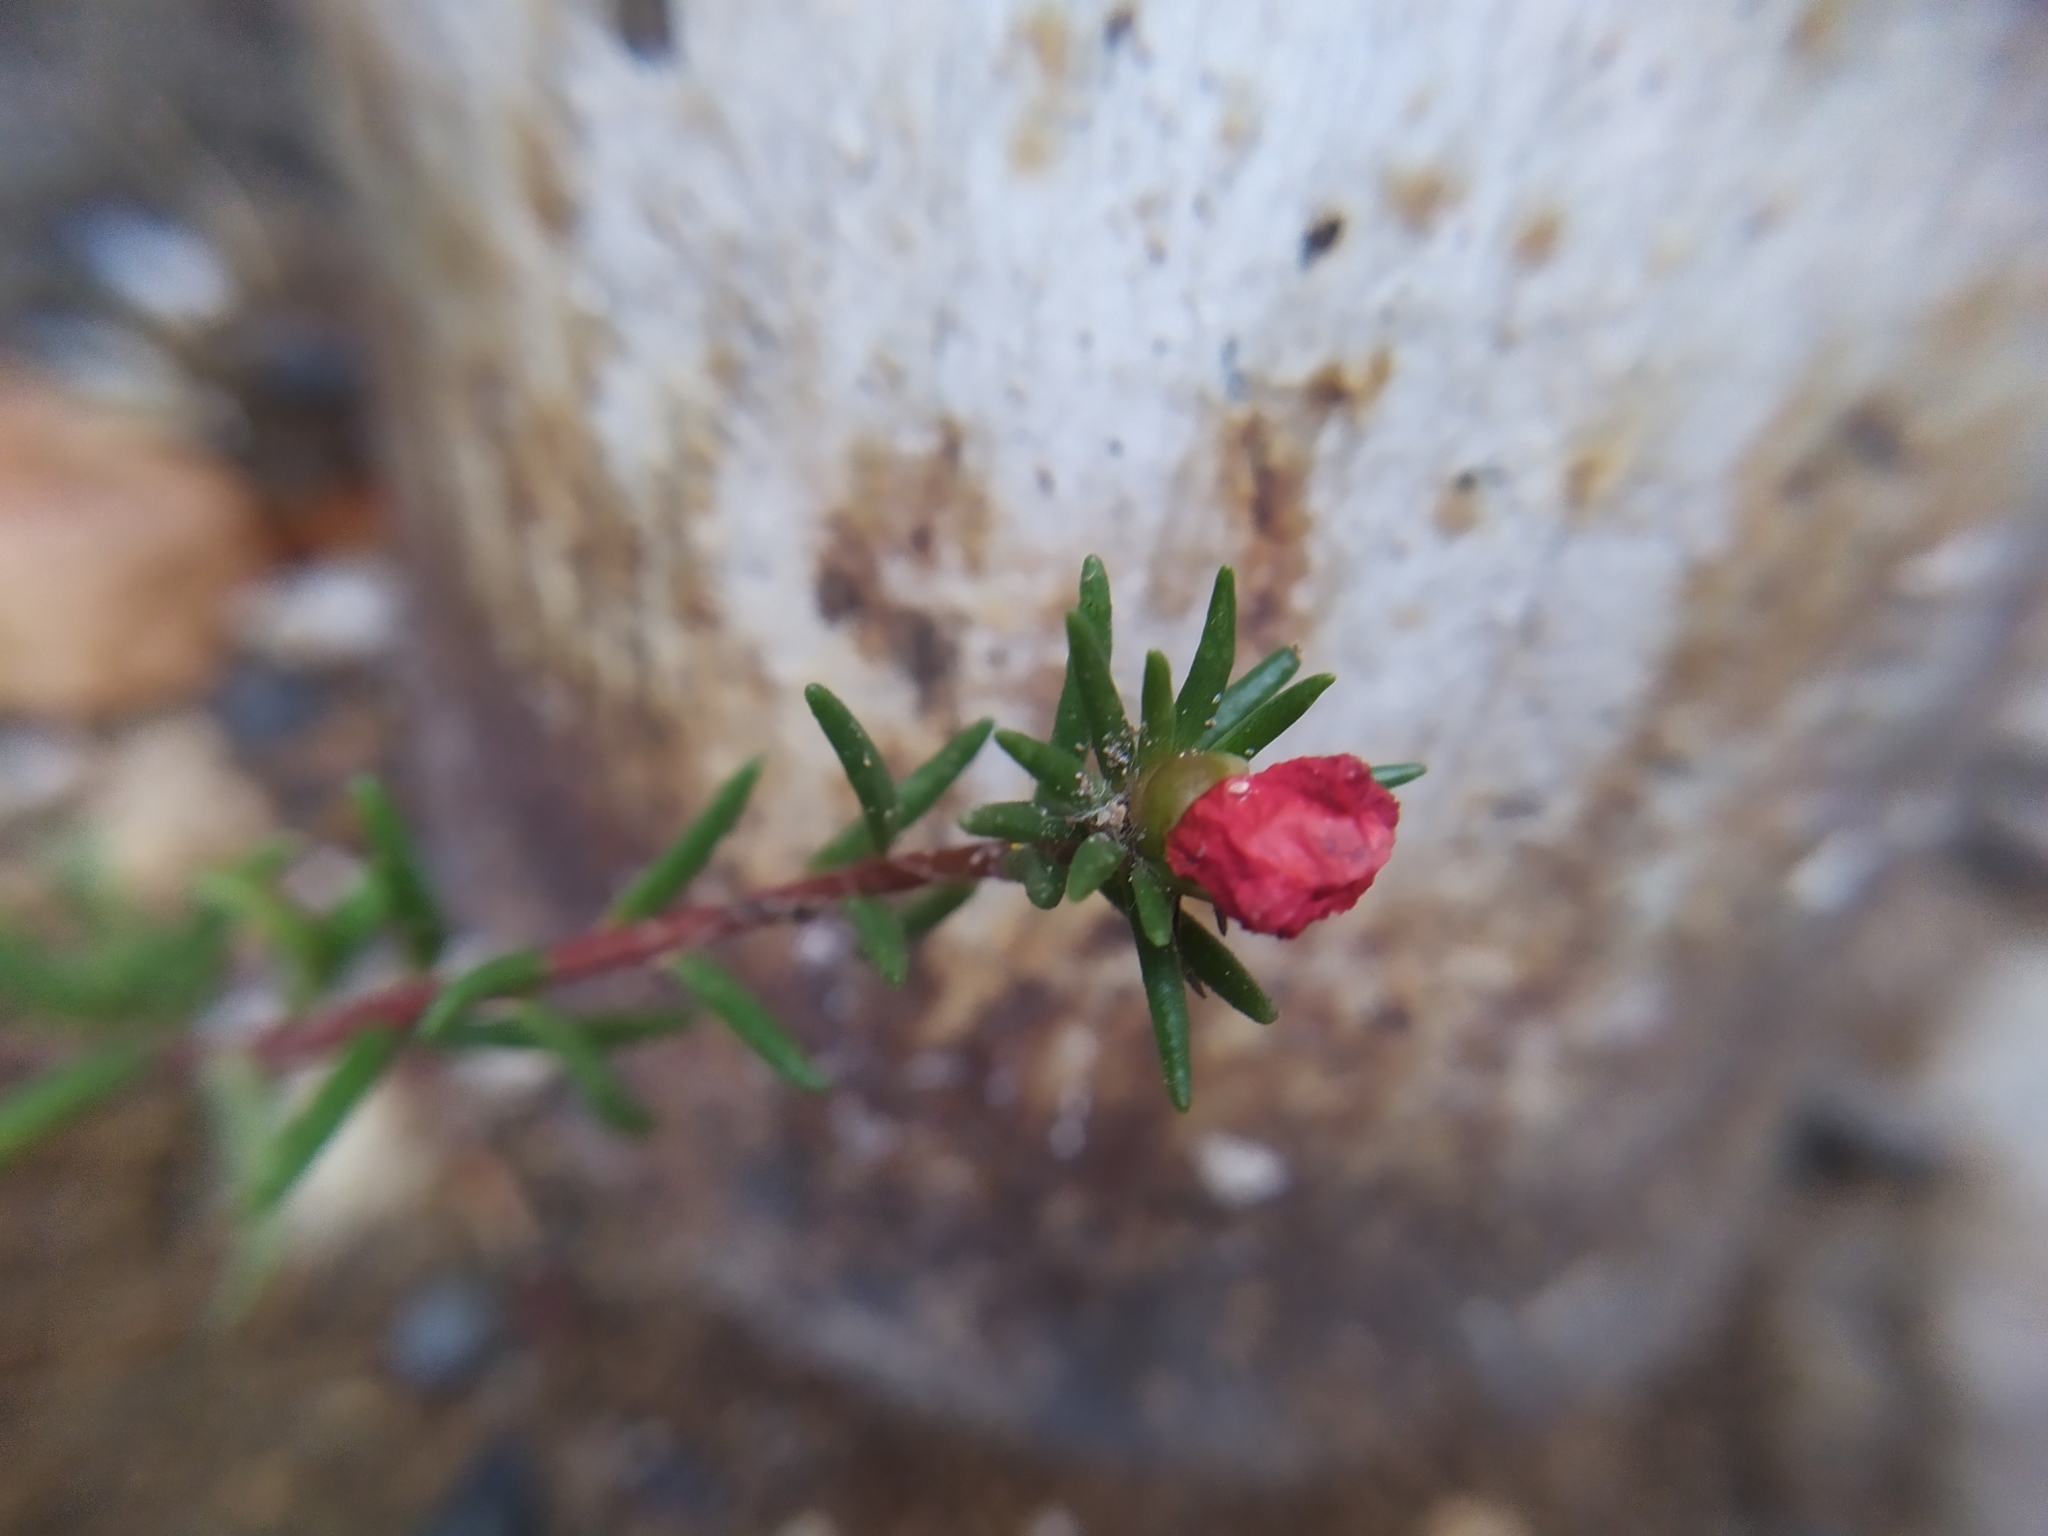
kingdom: Plantae
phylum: Tracheophyta
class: Magnoliopsida
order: Caryophyllales
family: Portulacaceae
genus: Portulaca
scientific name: Portulaca grandiflora
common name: Moss-rose
